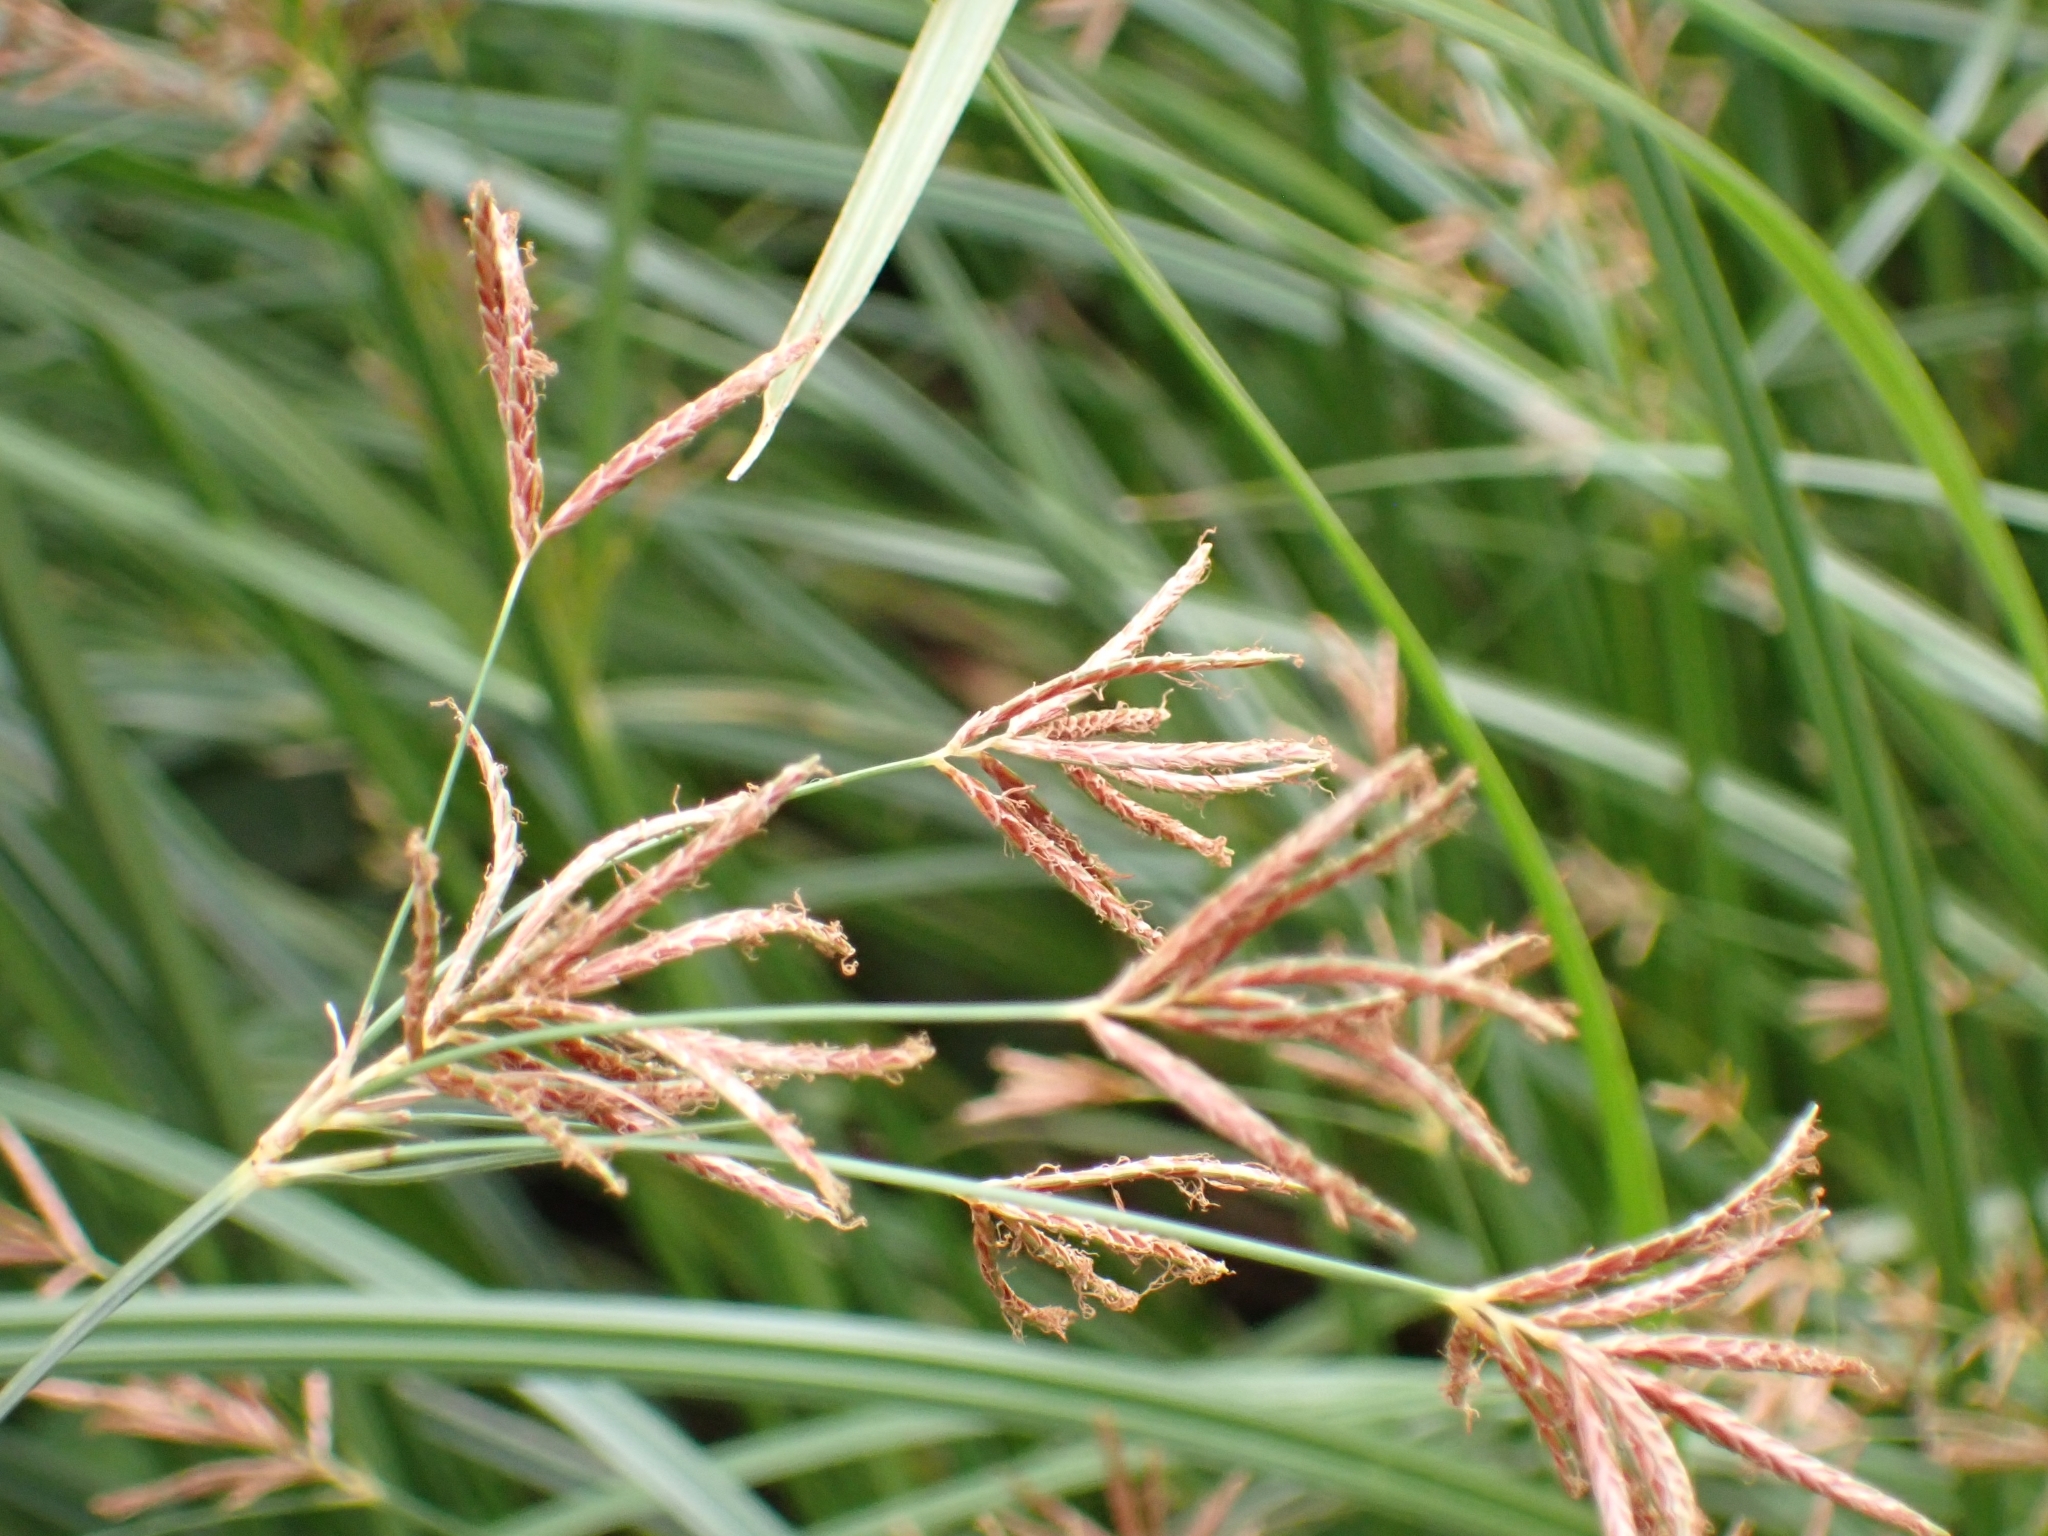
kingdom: Plantae
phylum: Tracheophyta
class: Liliopsida
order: Poales
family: Cyperaceae
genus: Cyperus
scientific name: Cyperus longus
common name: Galingale
